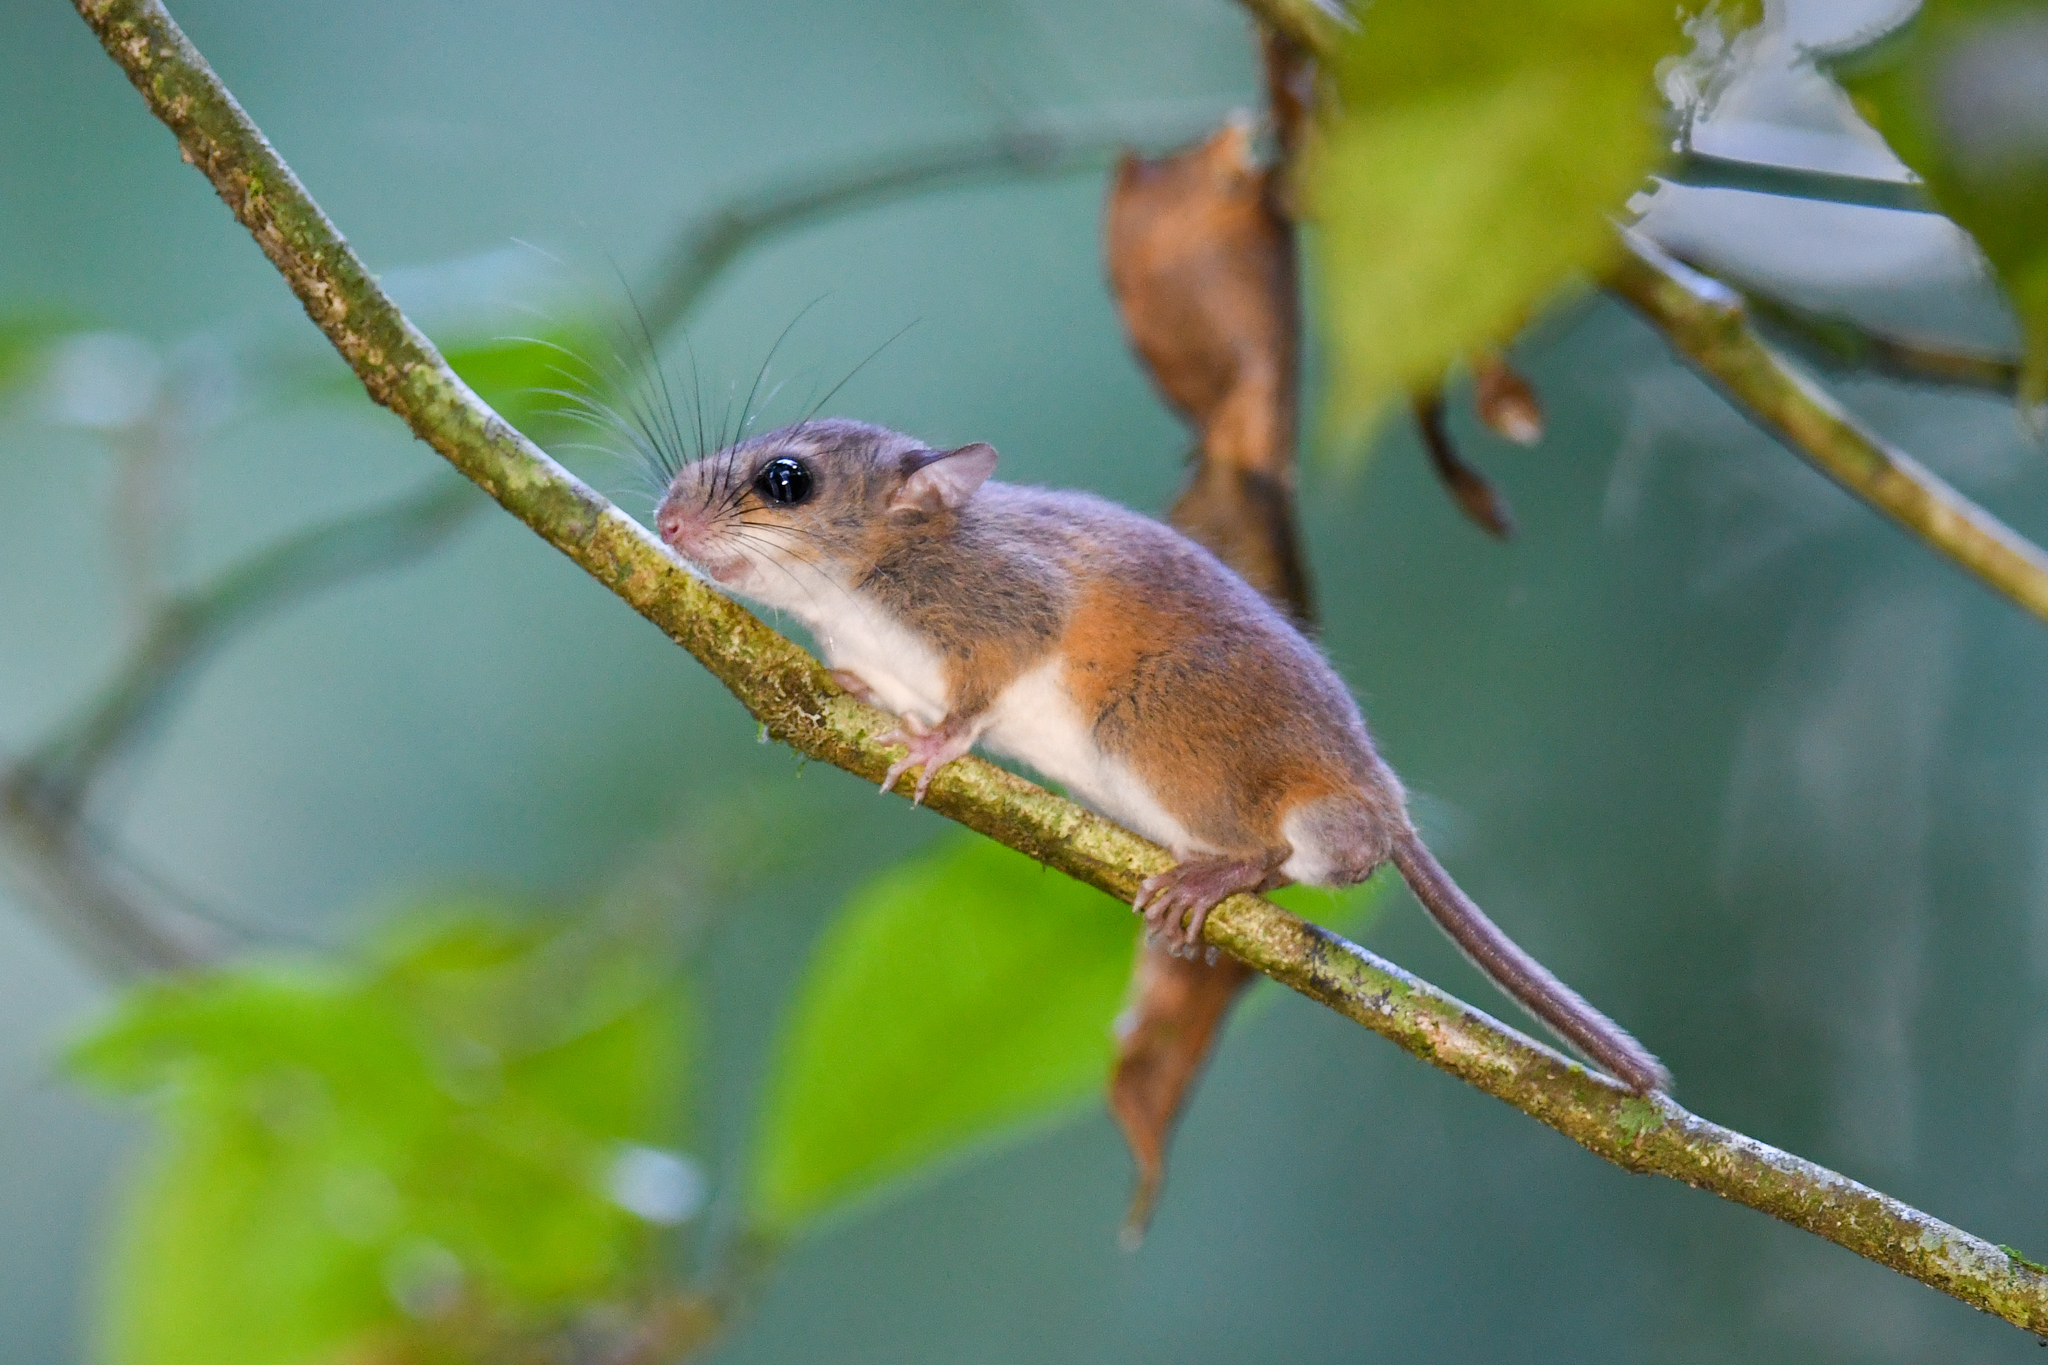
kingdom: Animalia
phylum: Chordata
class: Mammalia
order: Rodentia
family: Cricetidae
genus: Nyctomys
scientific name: Nyctomys sumichrasti
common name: Vesper rat
